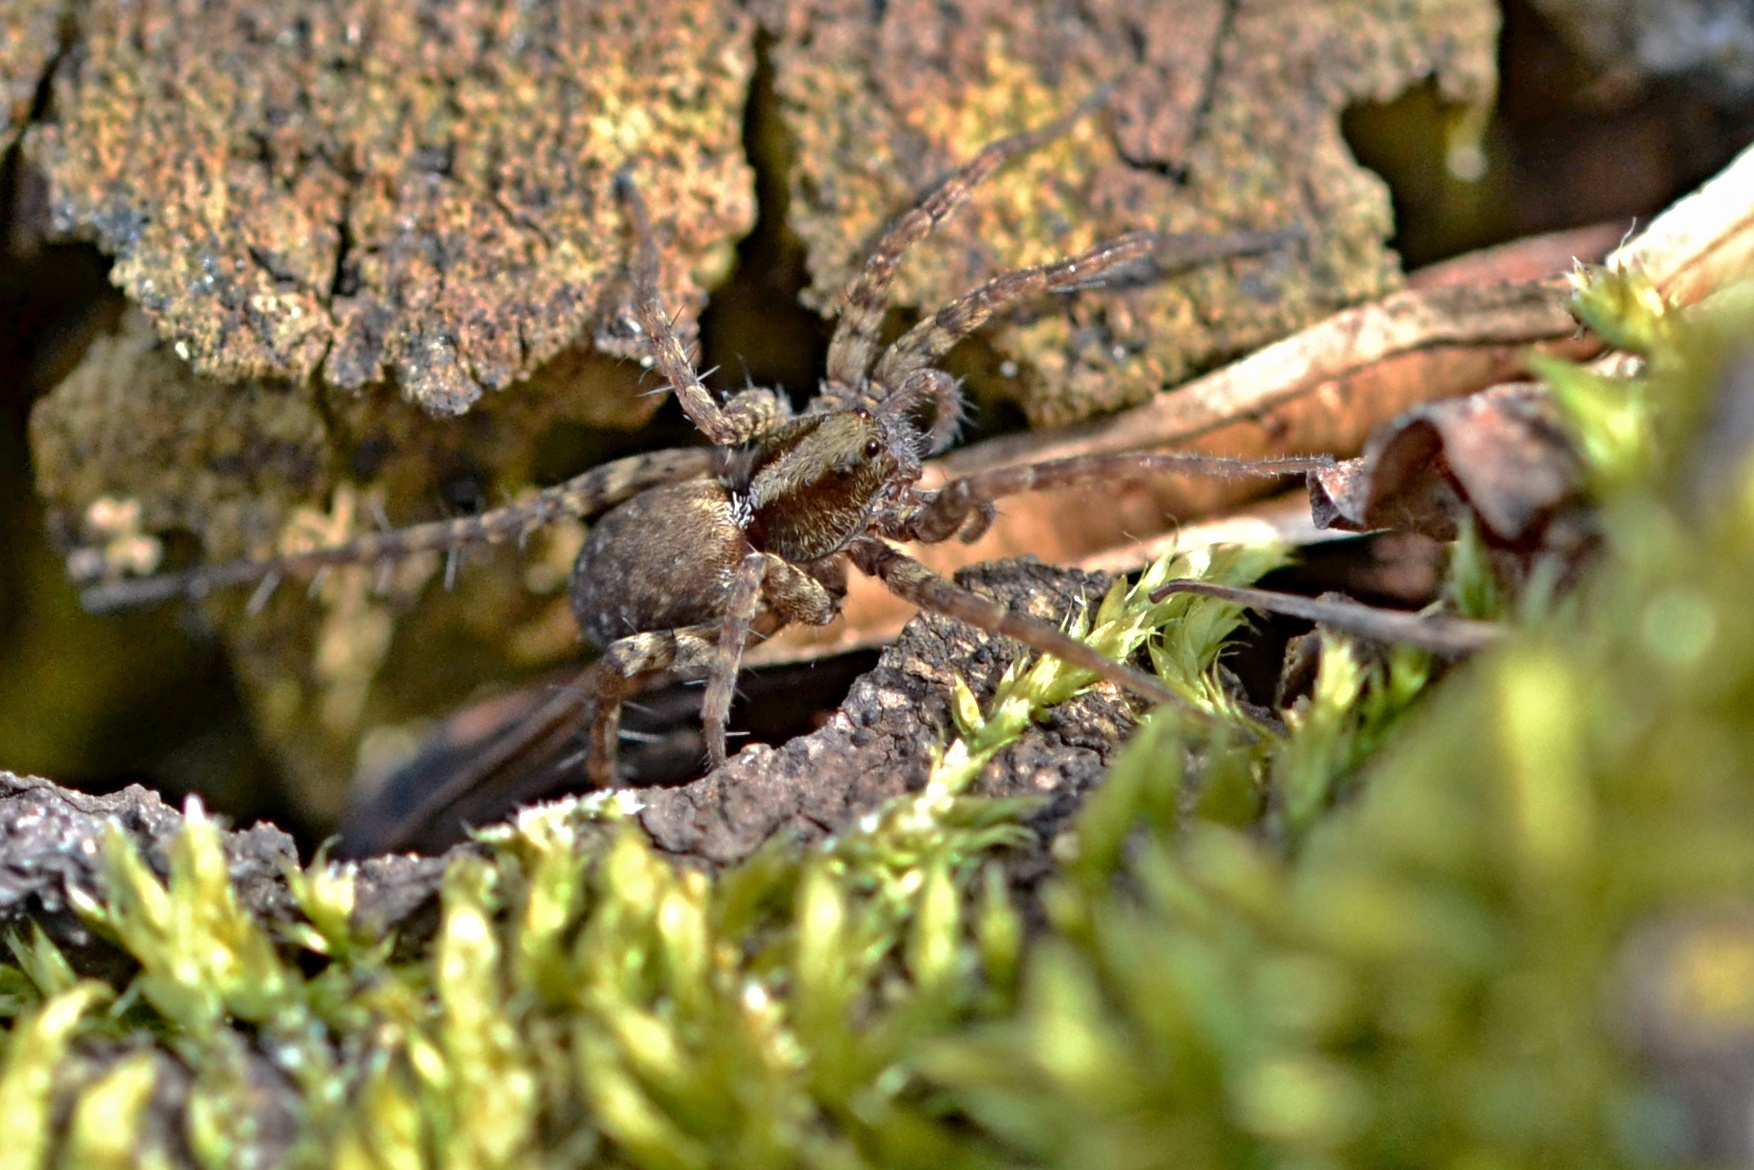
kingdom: Animalia
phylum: Arthropoda
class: Arachnida
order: Araneae
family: Lycosidae
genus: Pardosa
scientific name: Pardosa
